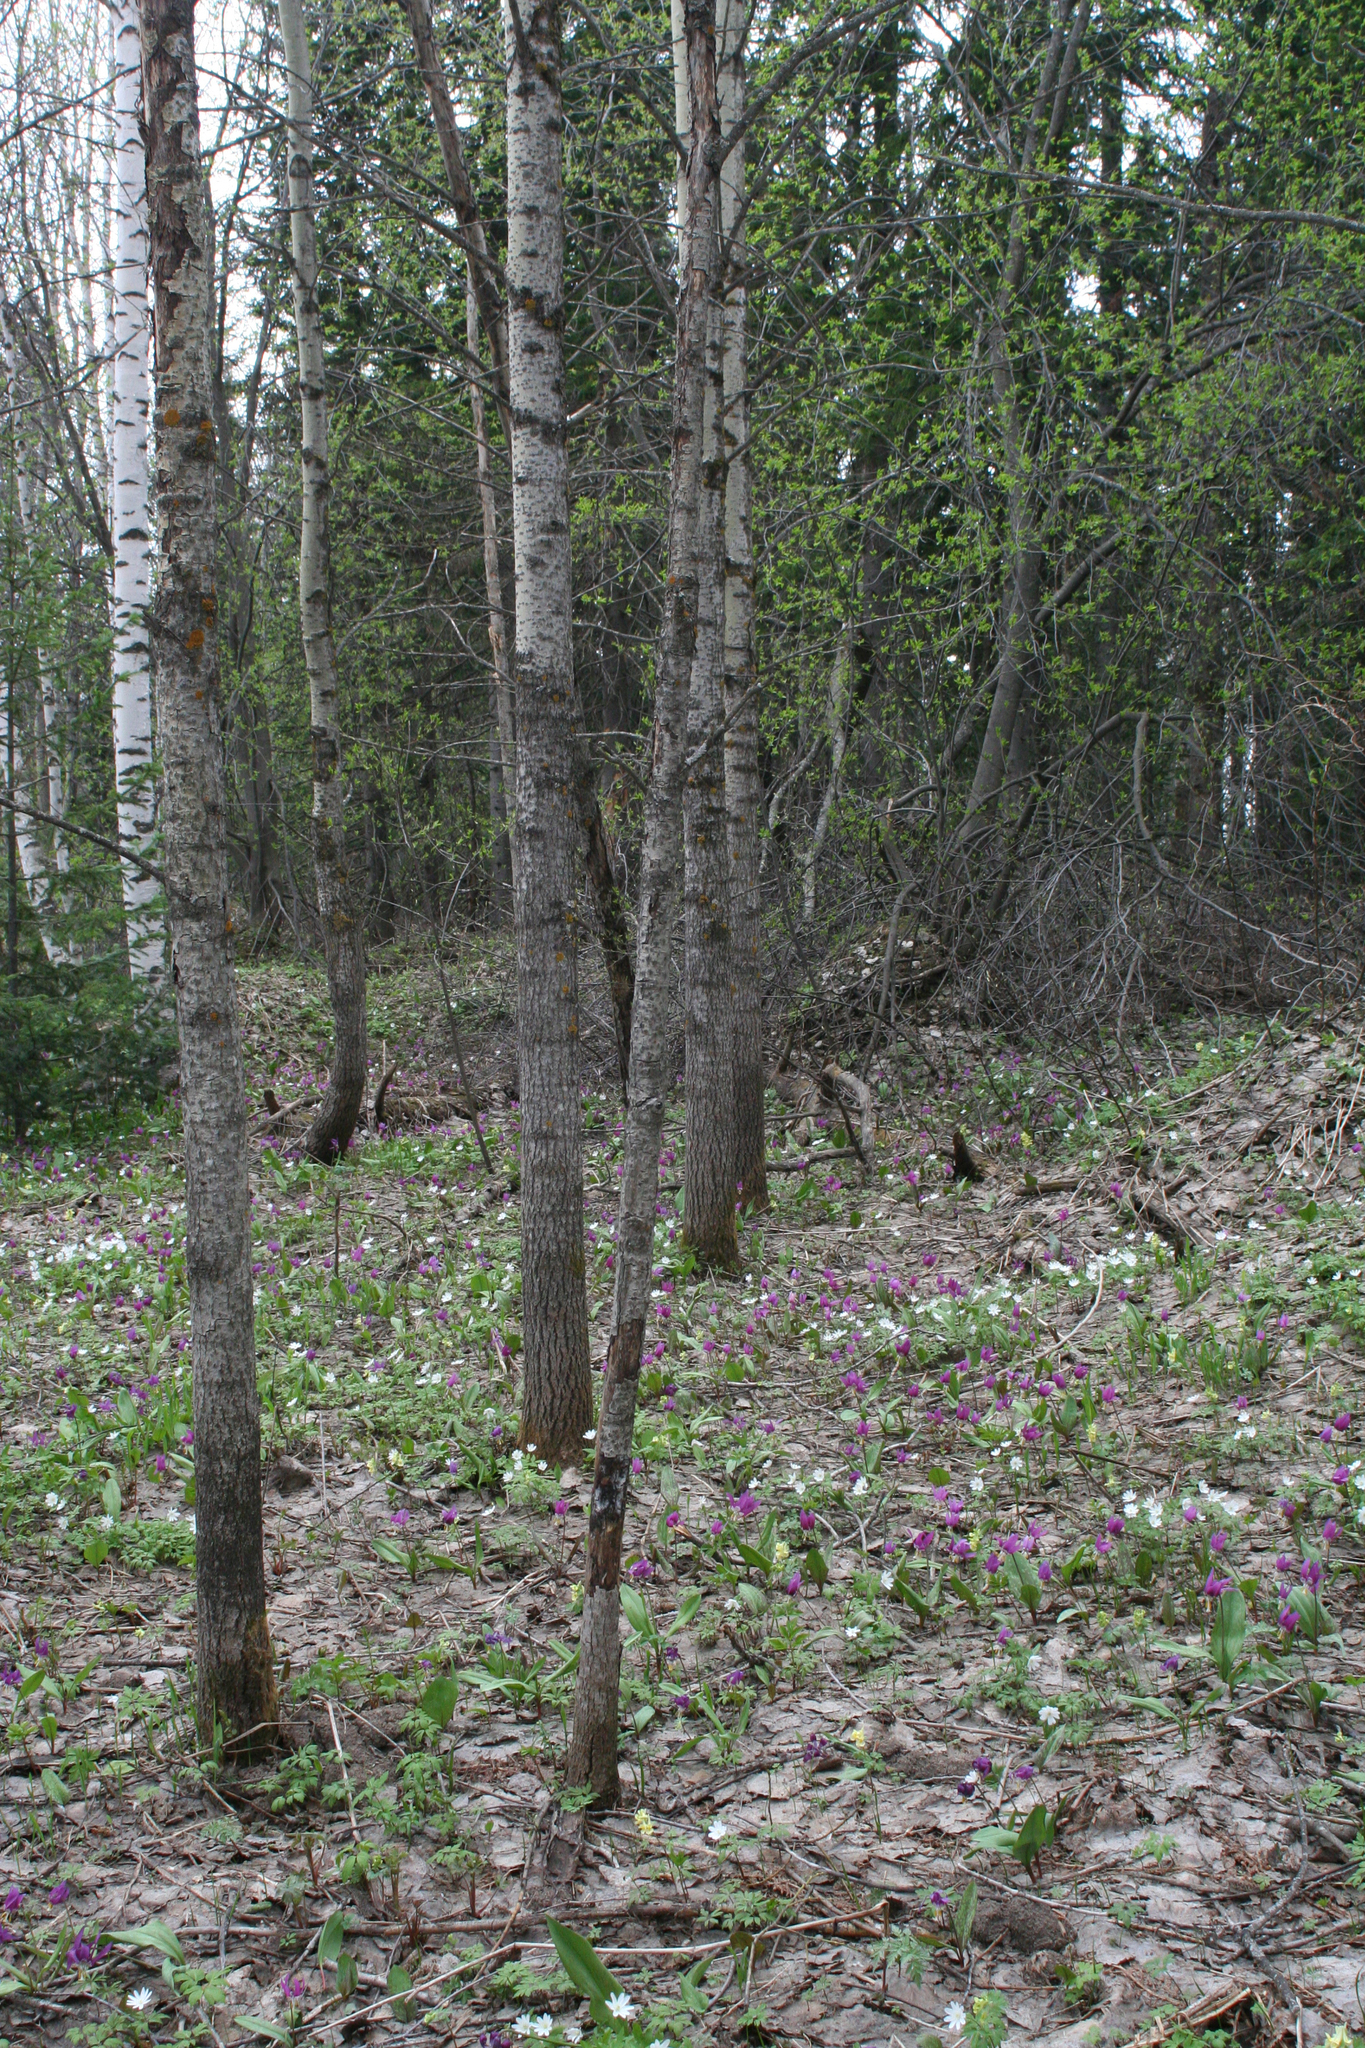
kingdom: Plantae
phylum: Tracheophyta
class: Magnoliopsida
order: Malpighiales
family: Salicaceae
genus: Populus
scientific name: Populus tremula
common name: European aspen
